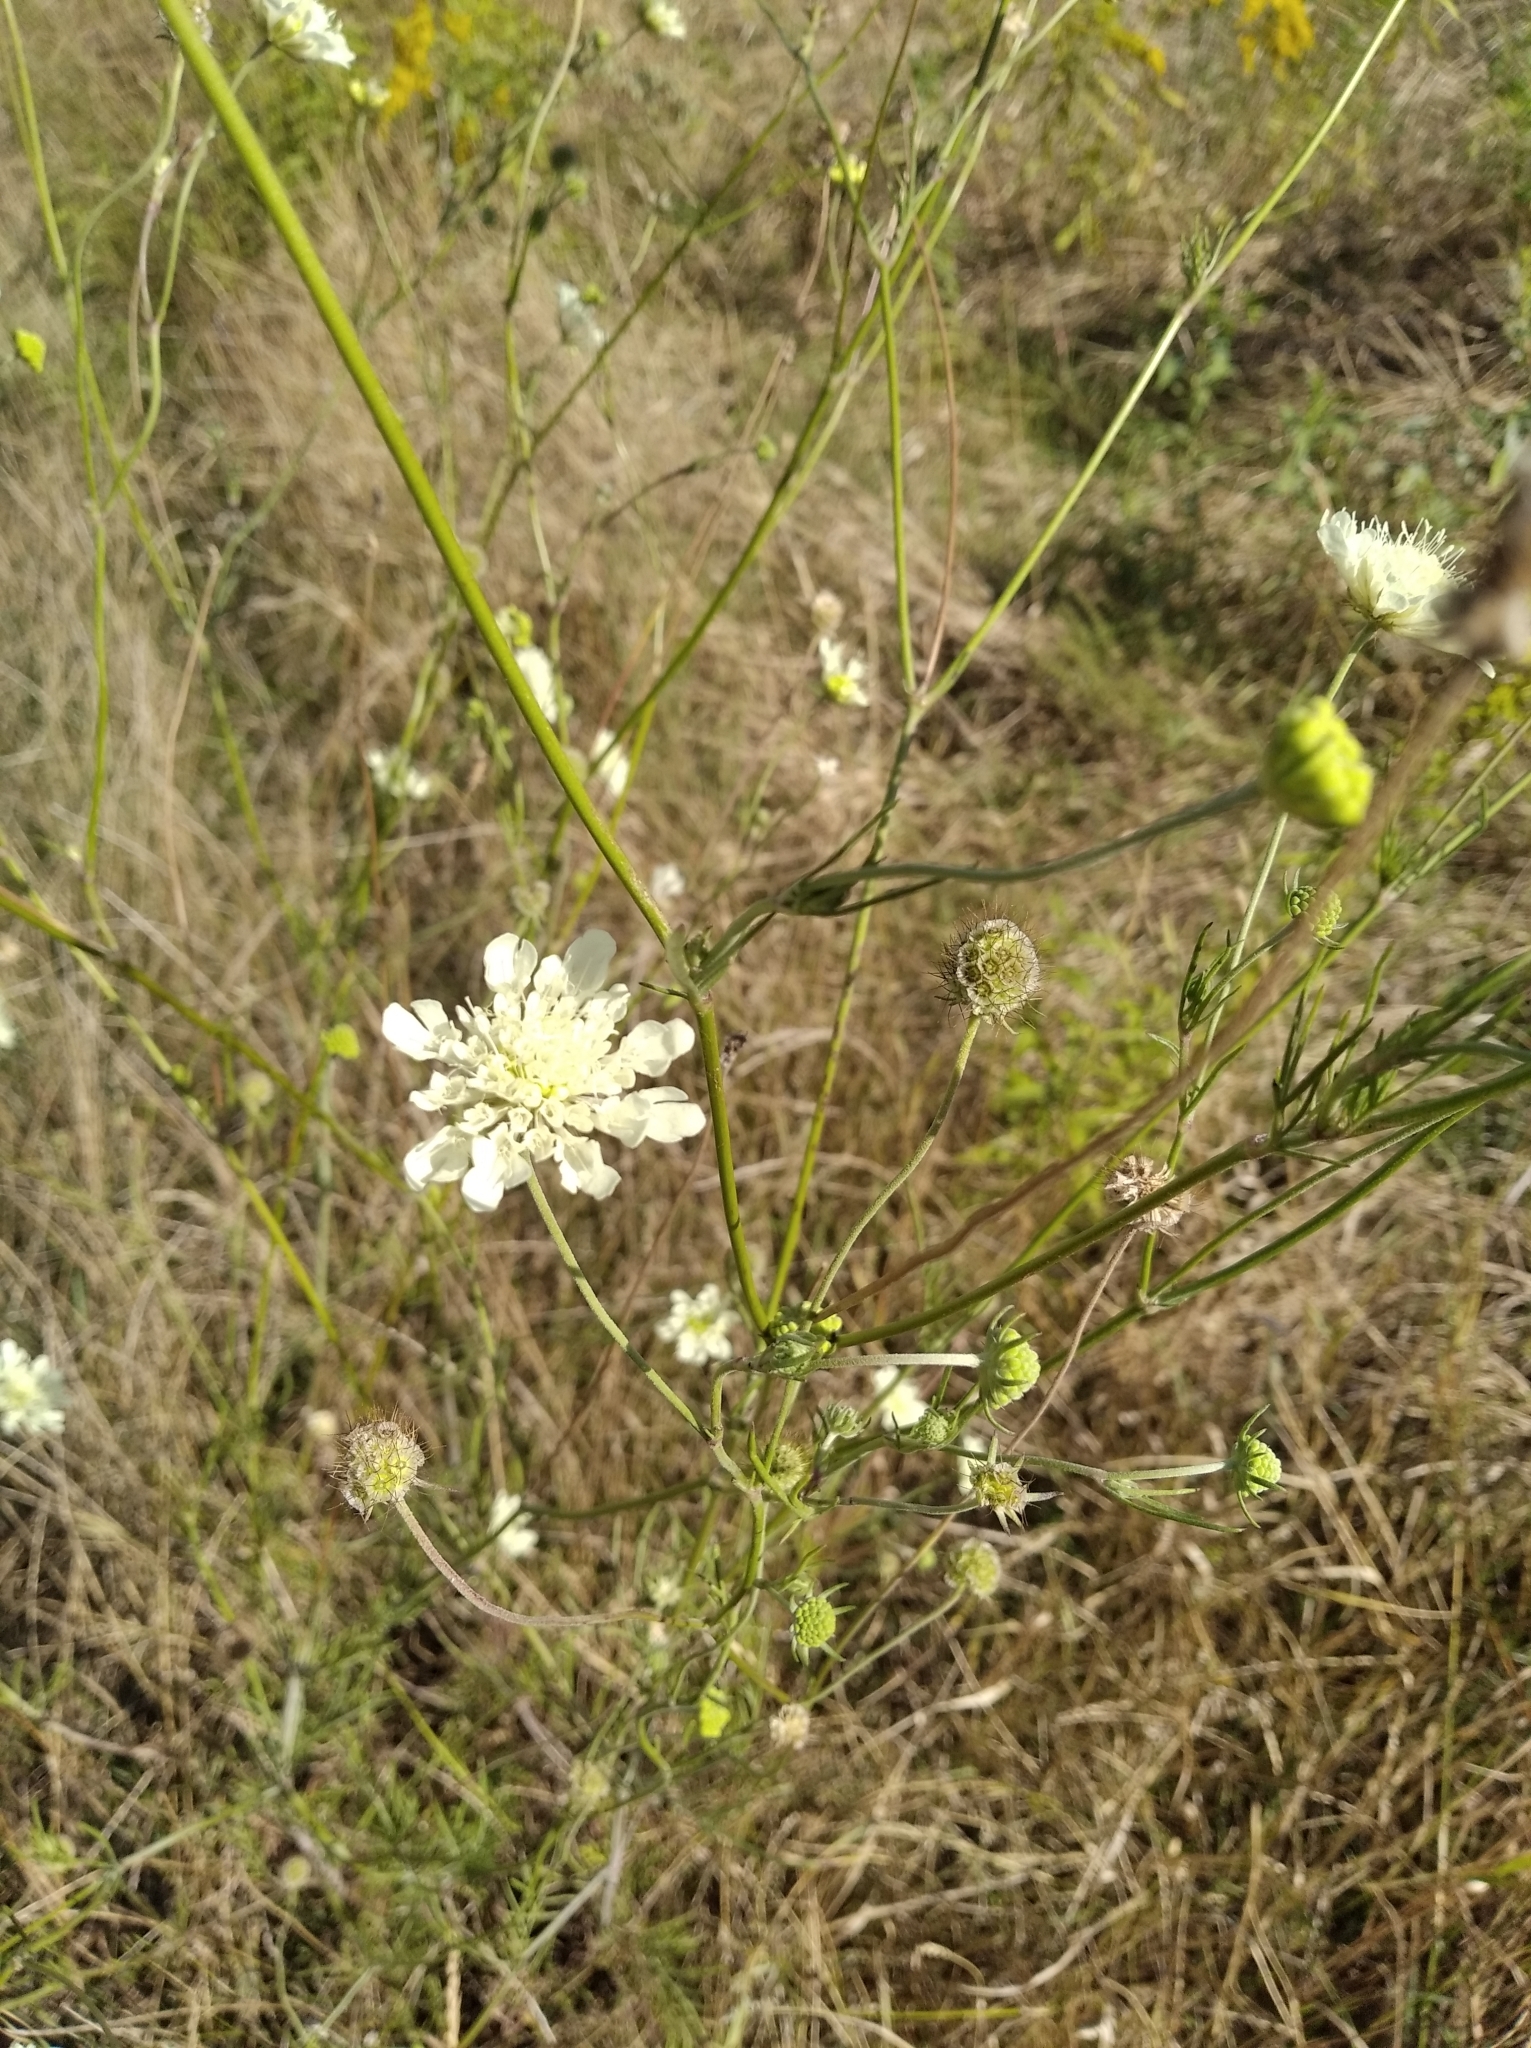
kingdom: Plantae
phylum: Tracheophyta
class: Magnoliopsida
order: Dipsacales
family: Caprifoliaceae
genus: Scabiosa
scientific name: Scabiosa ochroleuca
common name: Cream pincushions
